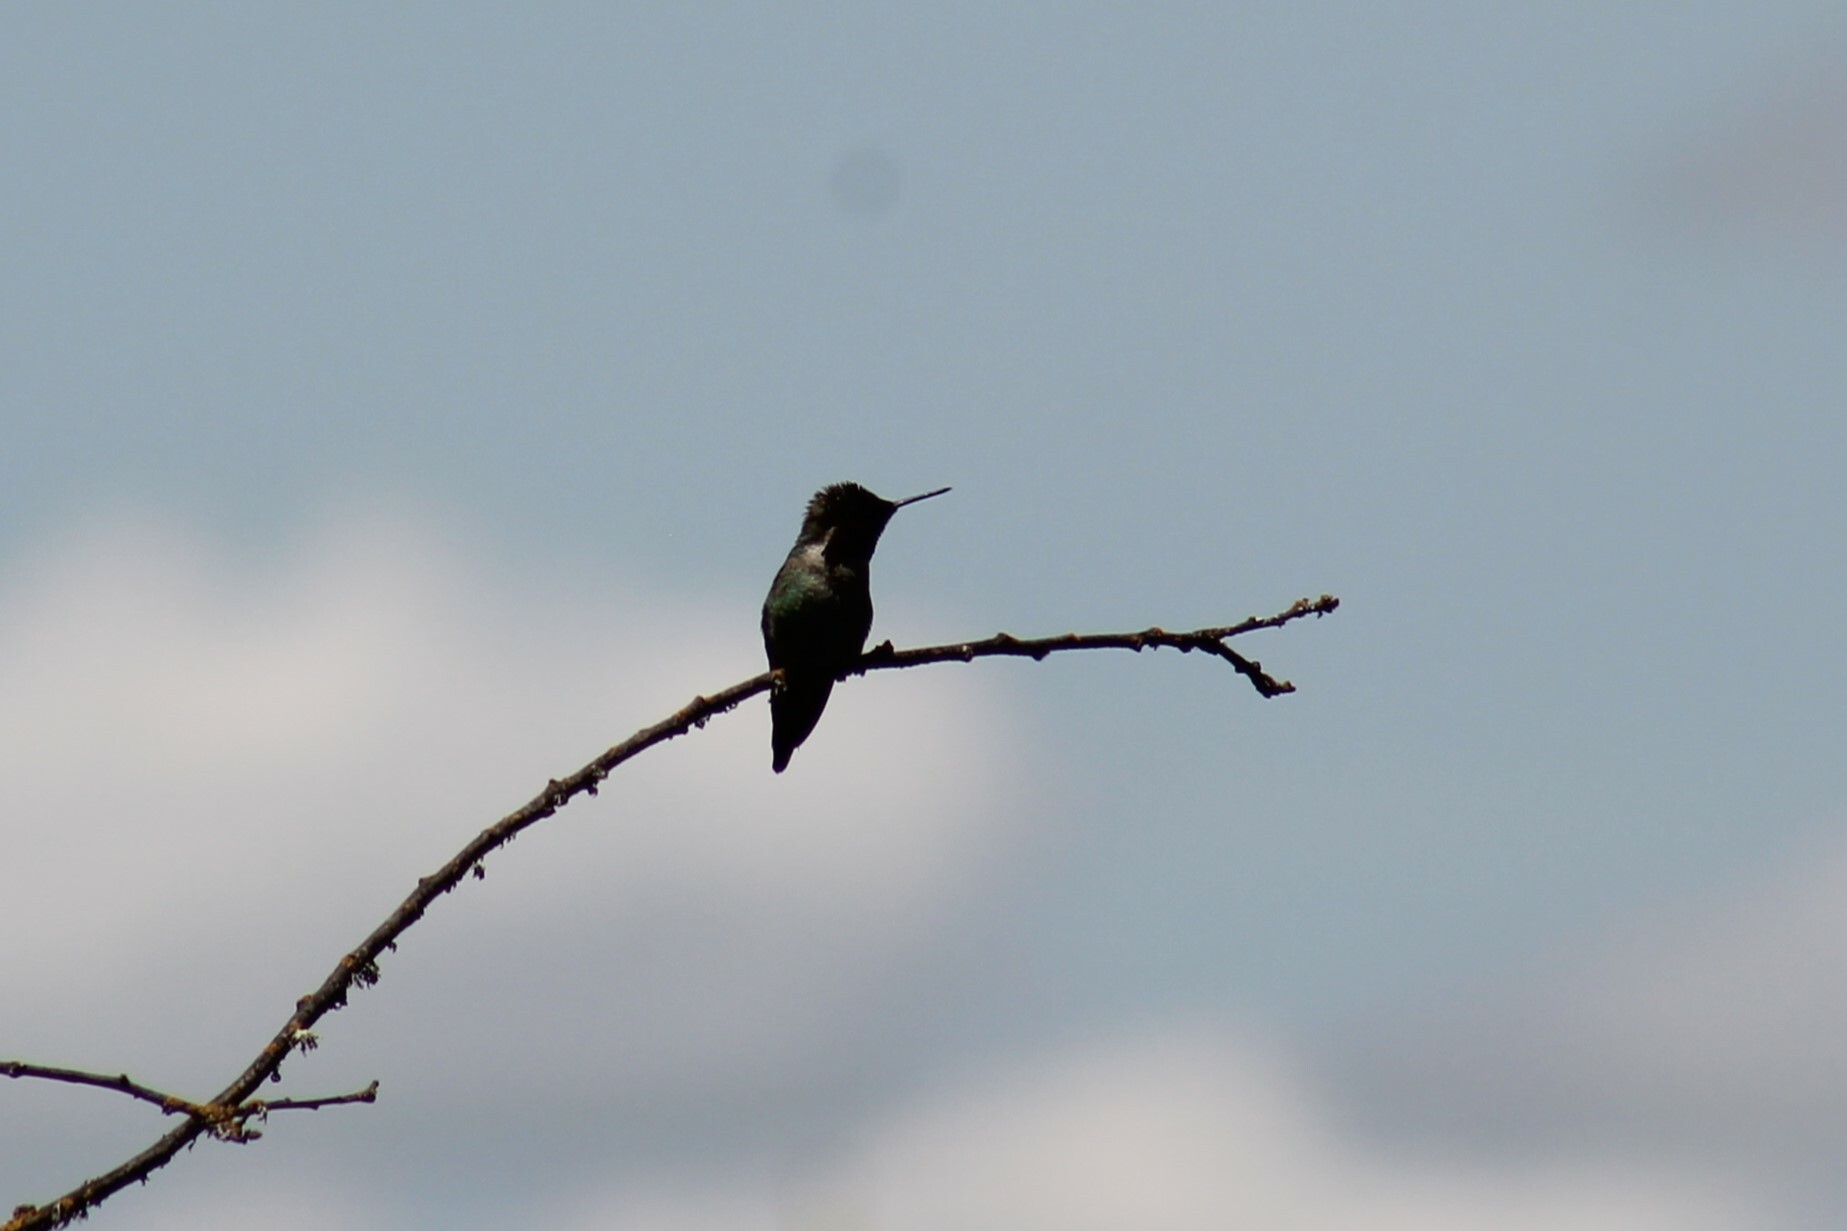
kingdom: Animalia
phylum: Chordata
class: Aves
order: Apodiformes
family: Trochilidae
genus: Calypte
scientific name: Calypte anna
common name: Anna's hummingbird
